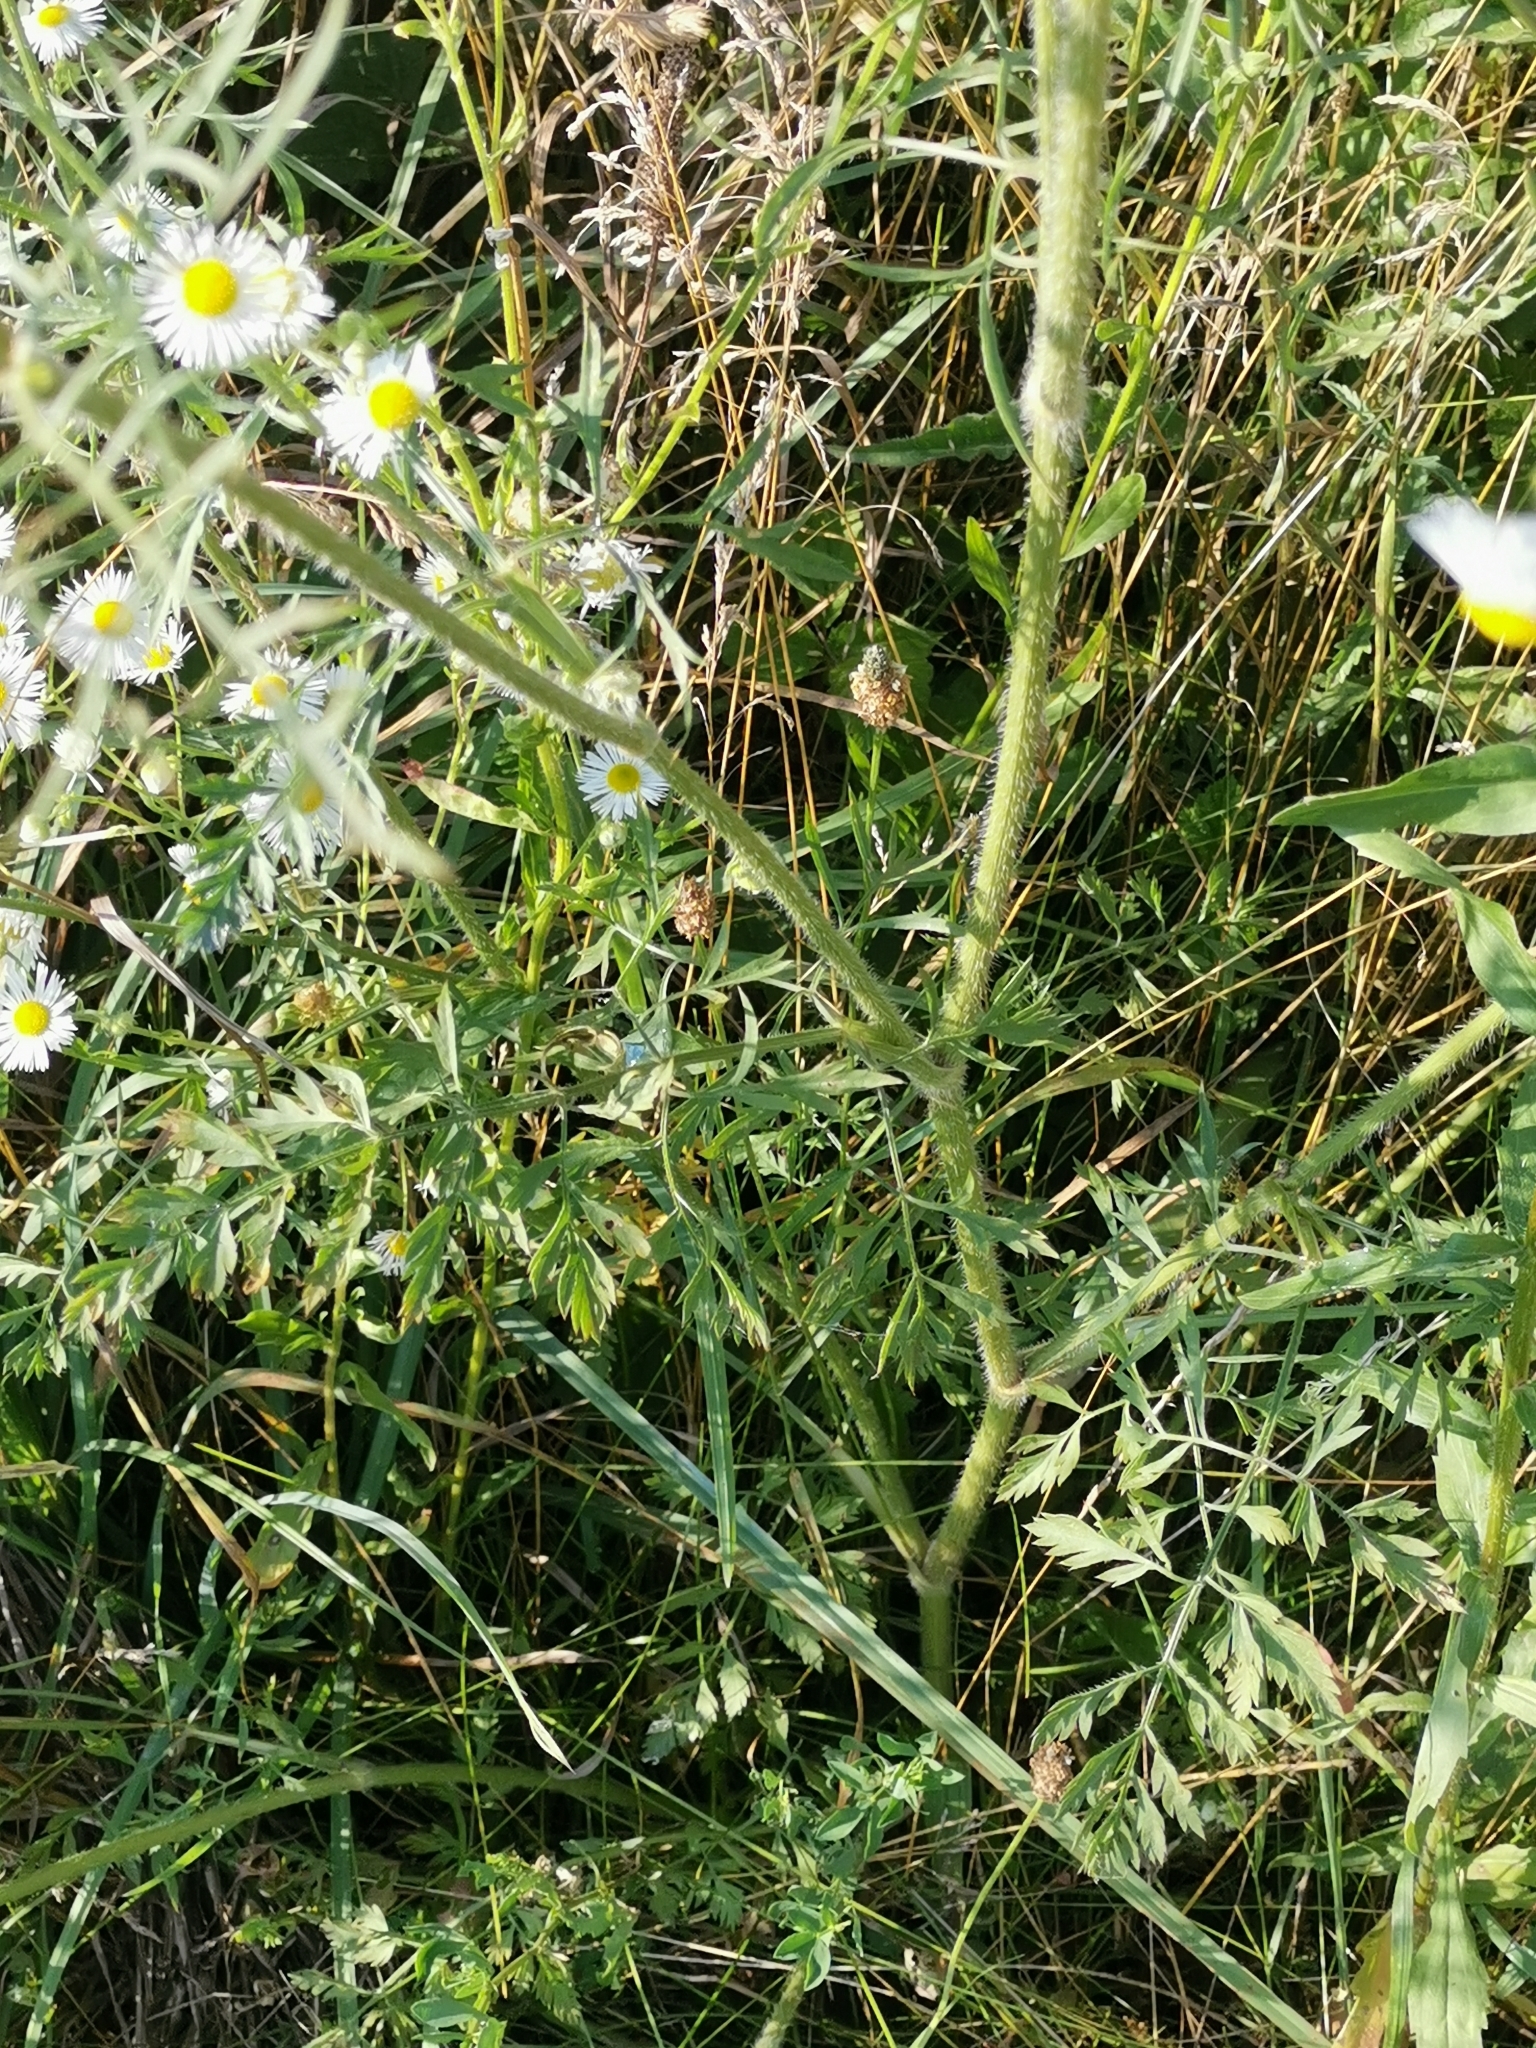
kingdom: Plantae
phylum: Tracheophyta
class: Magnoliopsida
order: Apiales
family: Apiaceae
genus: Daucus
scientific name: Daucus carota
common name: Wild carrot
